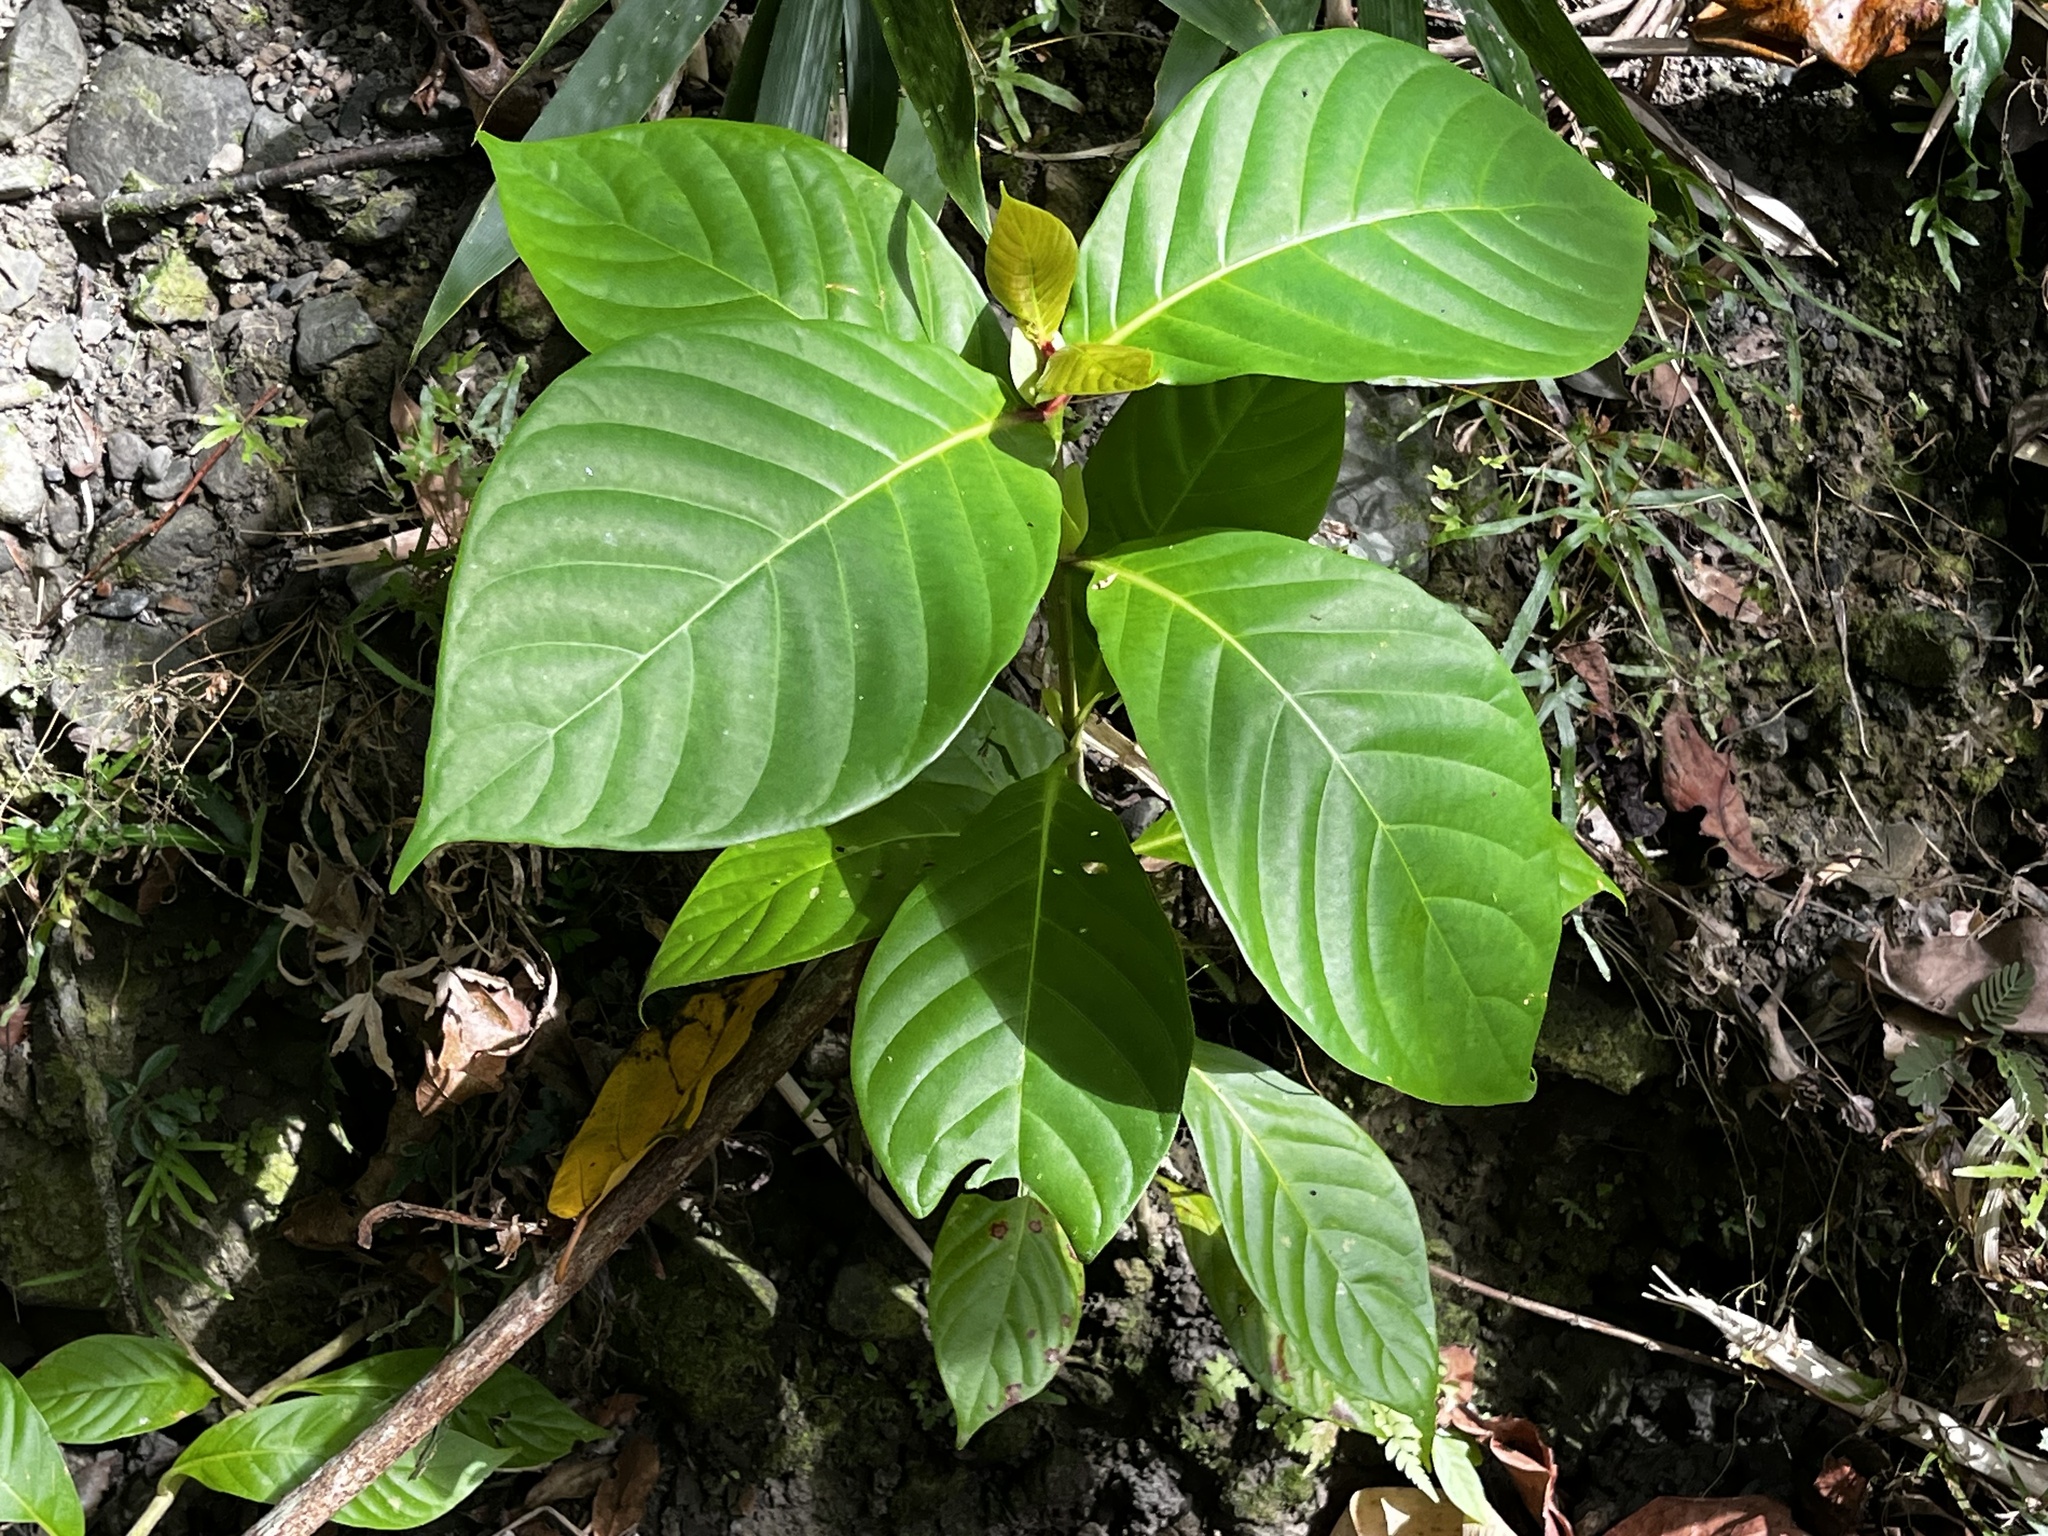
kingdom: Plantae
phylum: Tracheophyta
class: Magnoliopsida
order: Gentianales
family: Rubiaceae
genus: Neonauclea
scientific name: Neonauclea reticulata
